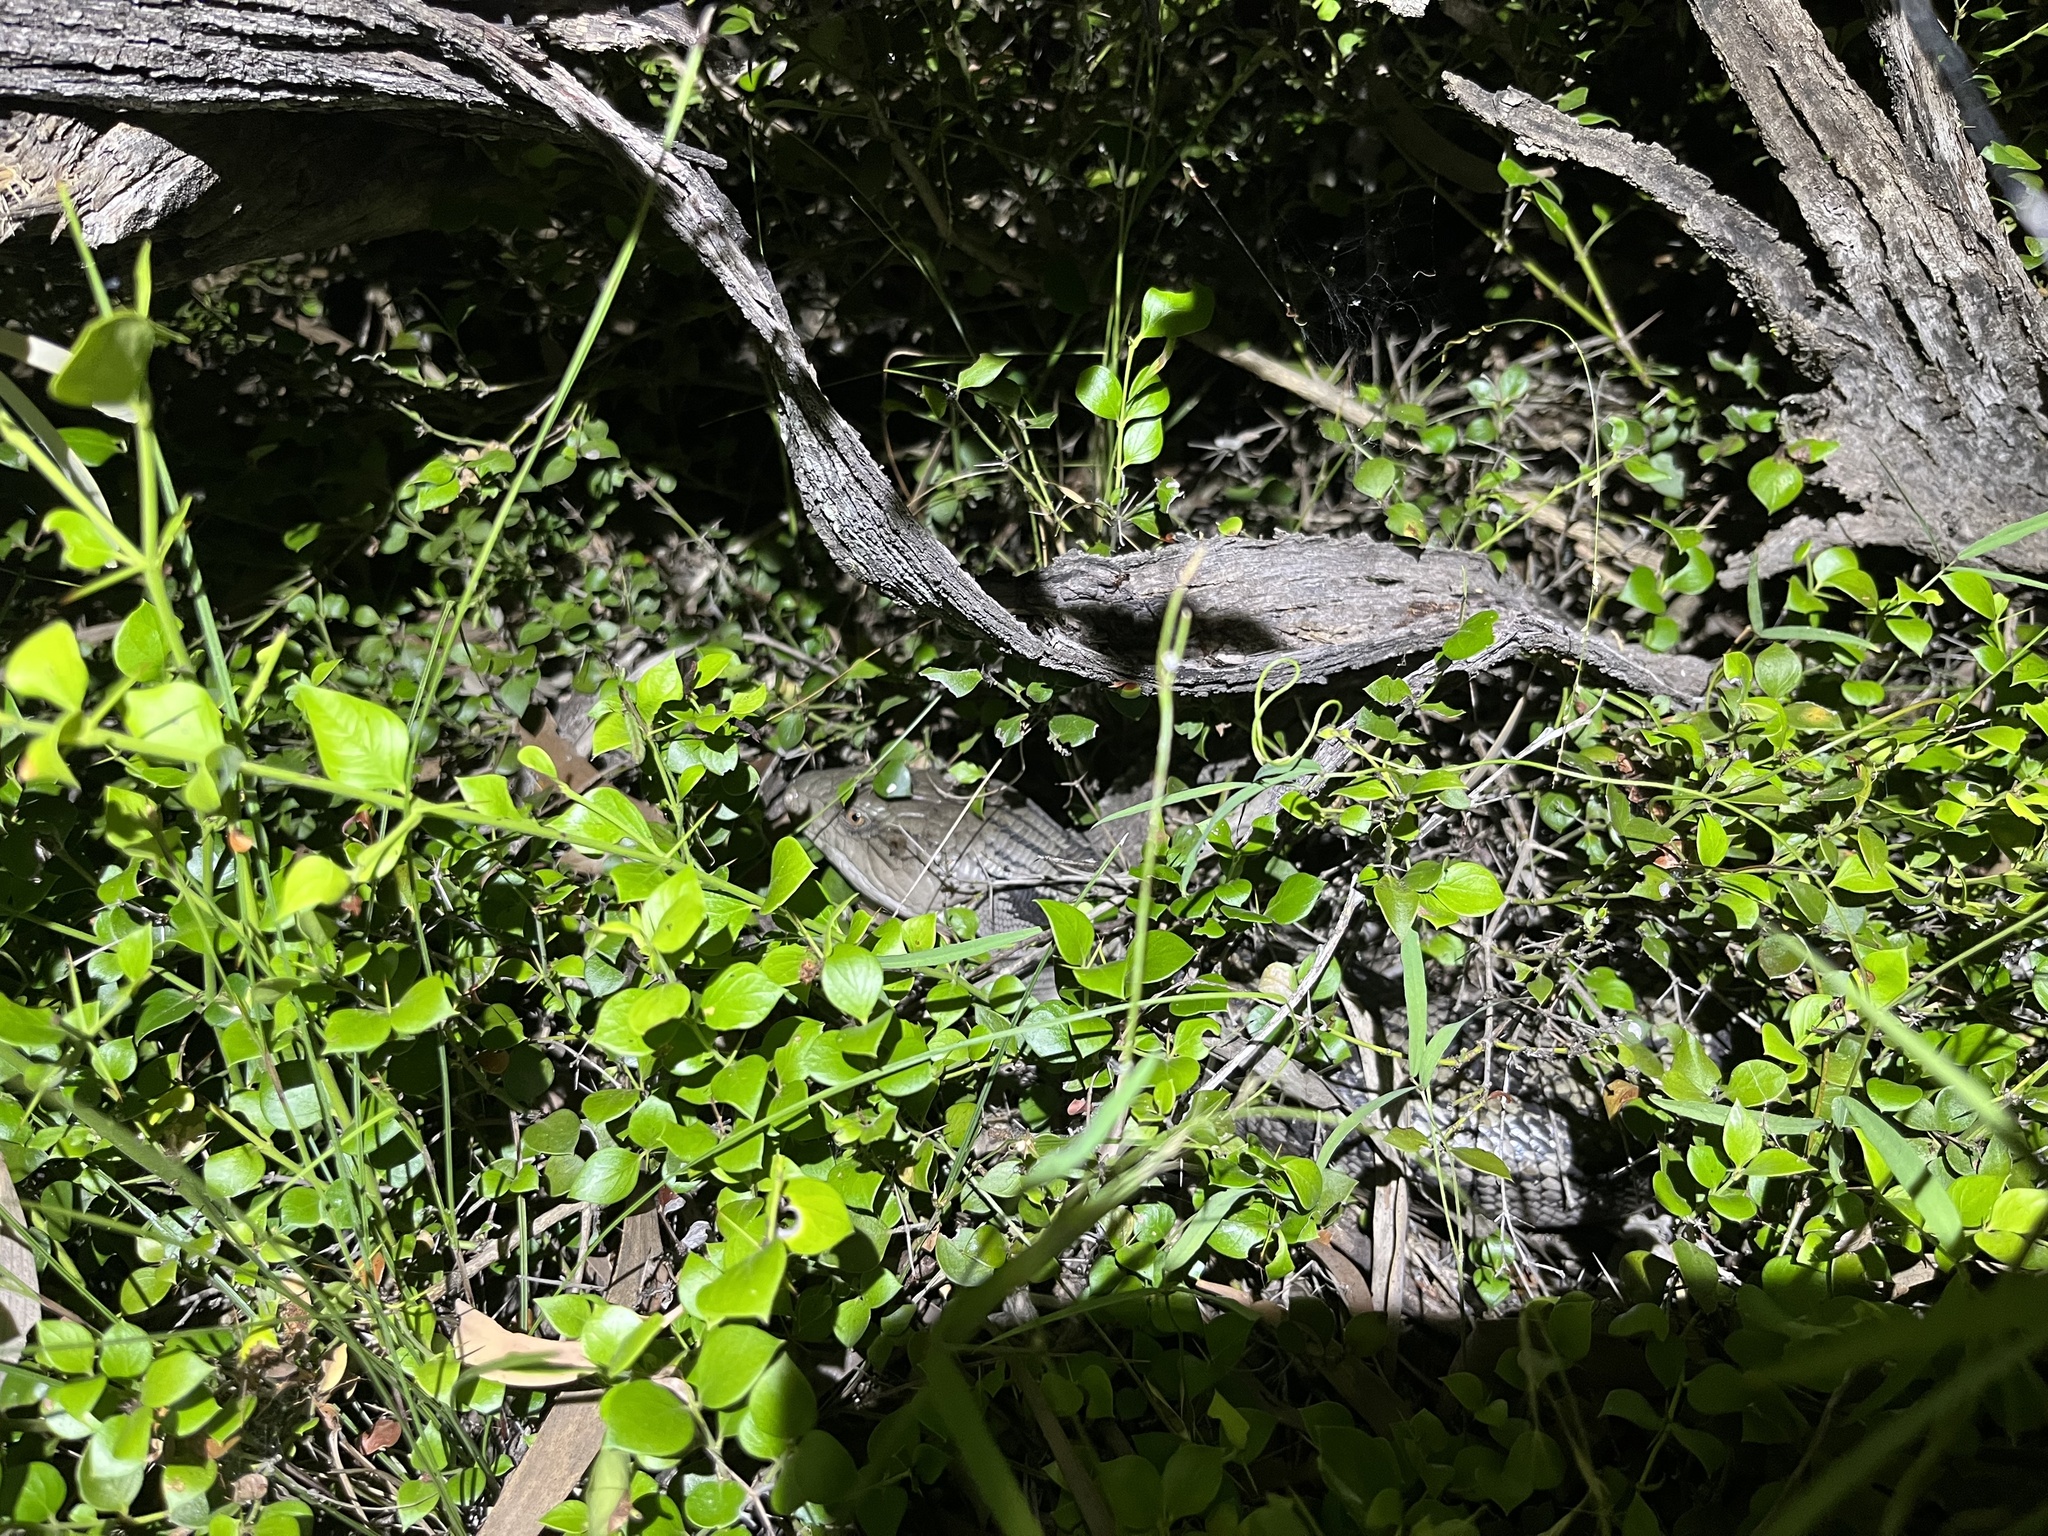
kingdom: Animalia
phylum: Chordata
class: Squamata
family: Scincidae
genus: Tiliqua
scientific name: Tiliqua scincoides
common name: Common bluetongue
